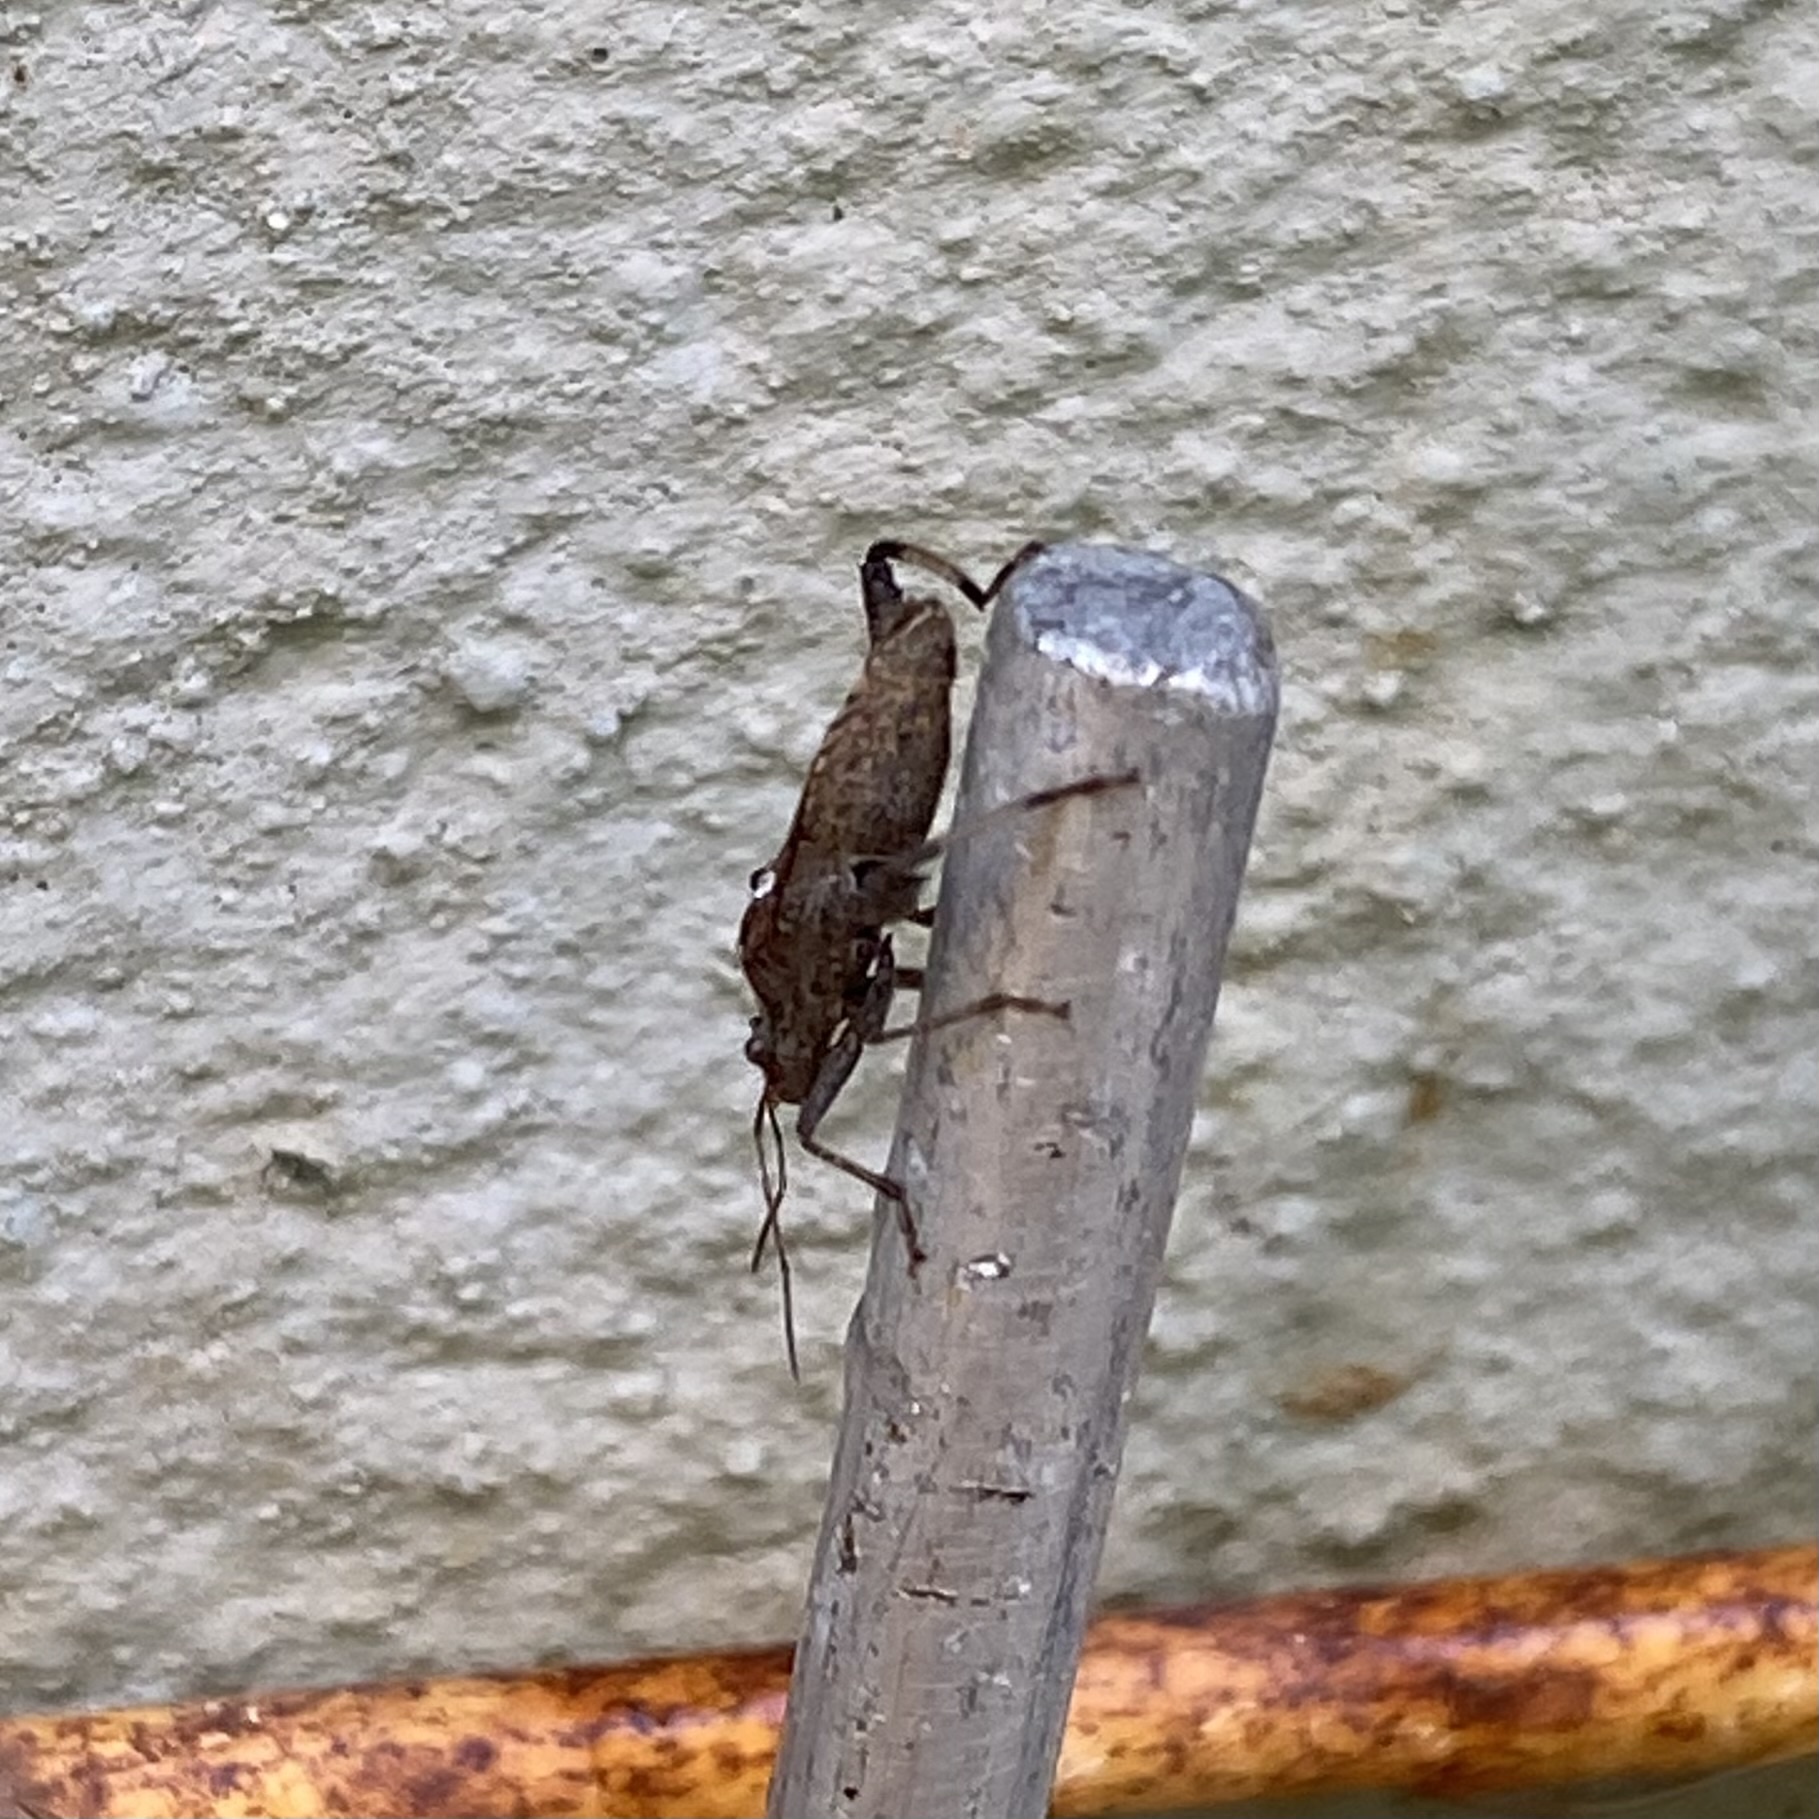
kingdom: Animalia
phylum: Arthropoda
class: Insecta
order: Hemiptera
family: Alydidae
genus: Heegeria
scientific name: Heegeria tangirica
